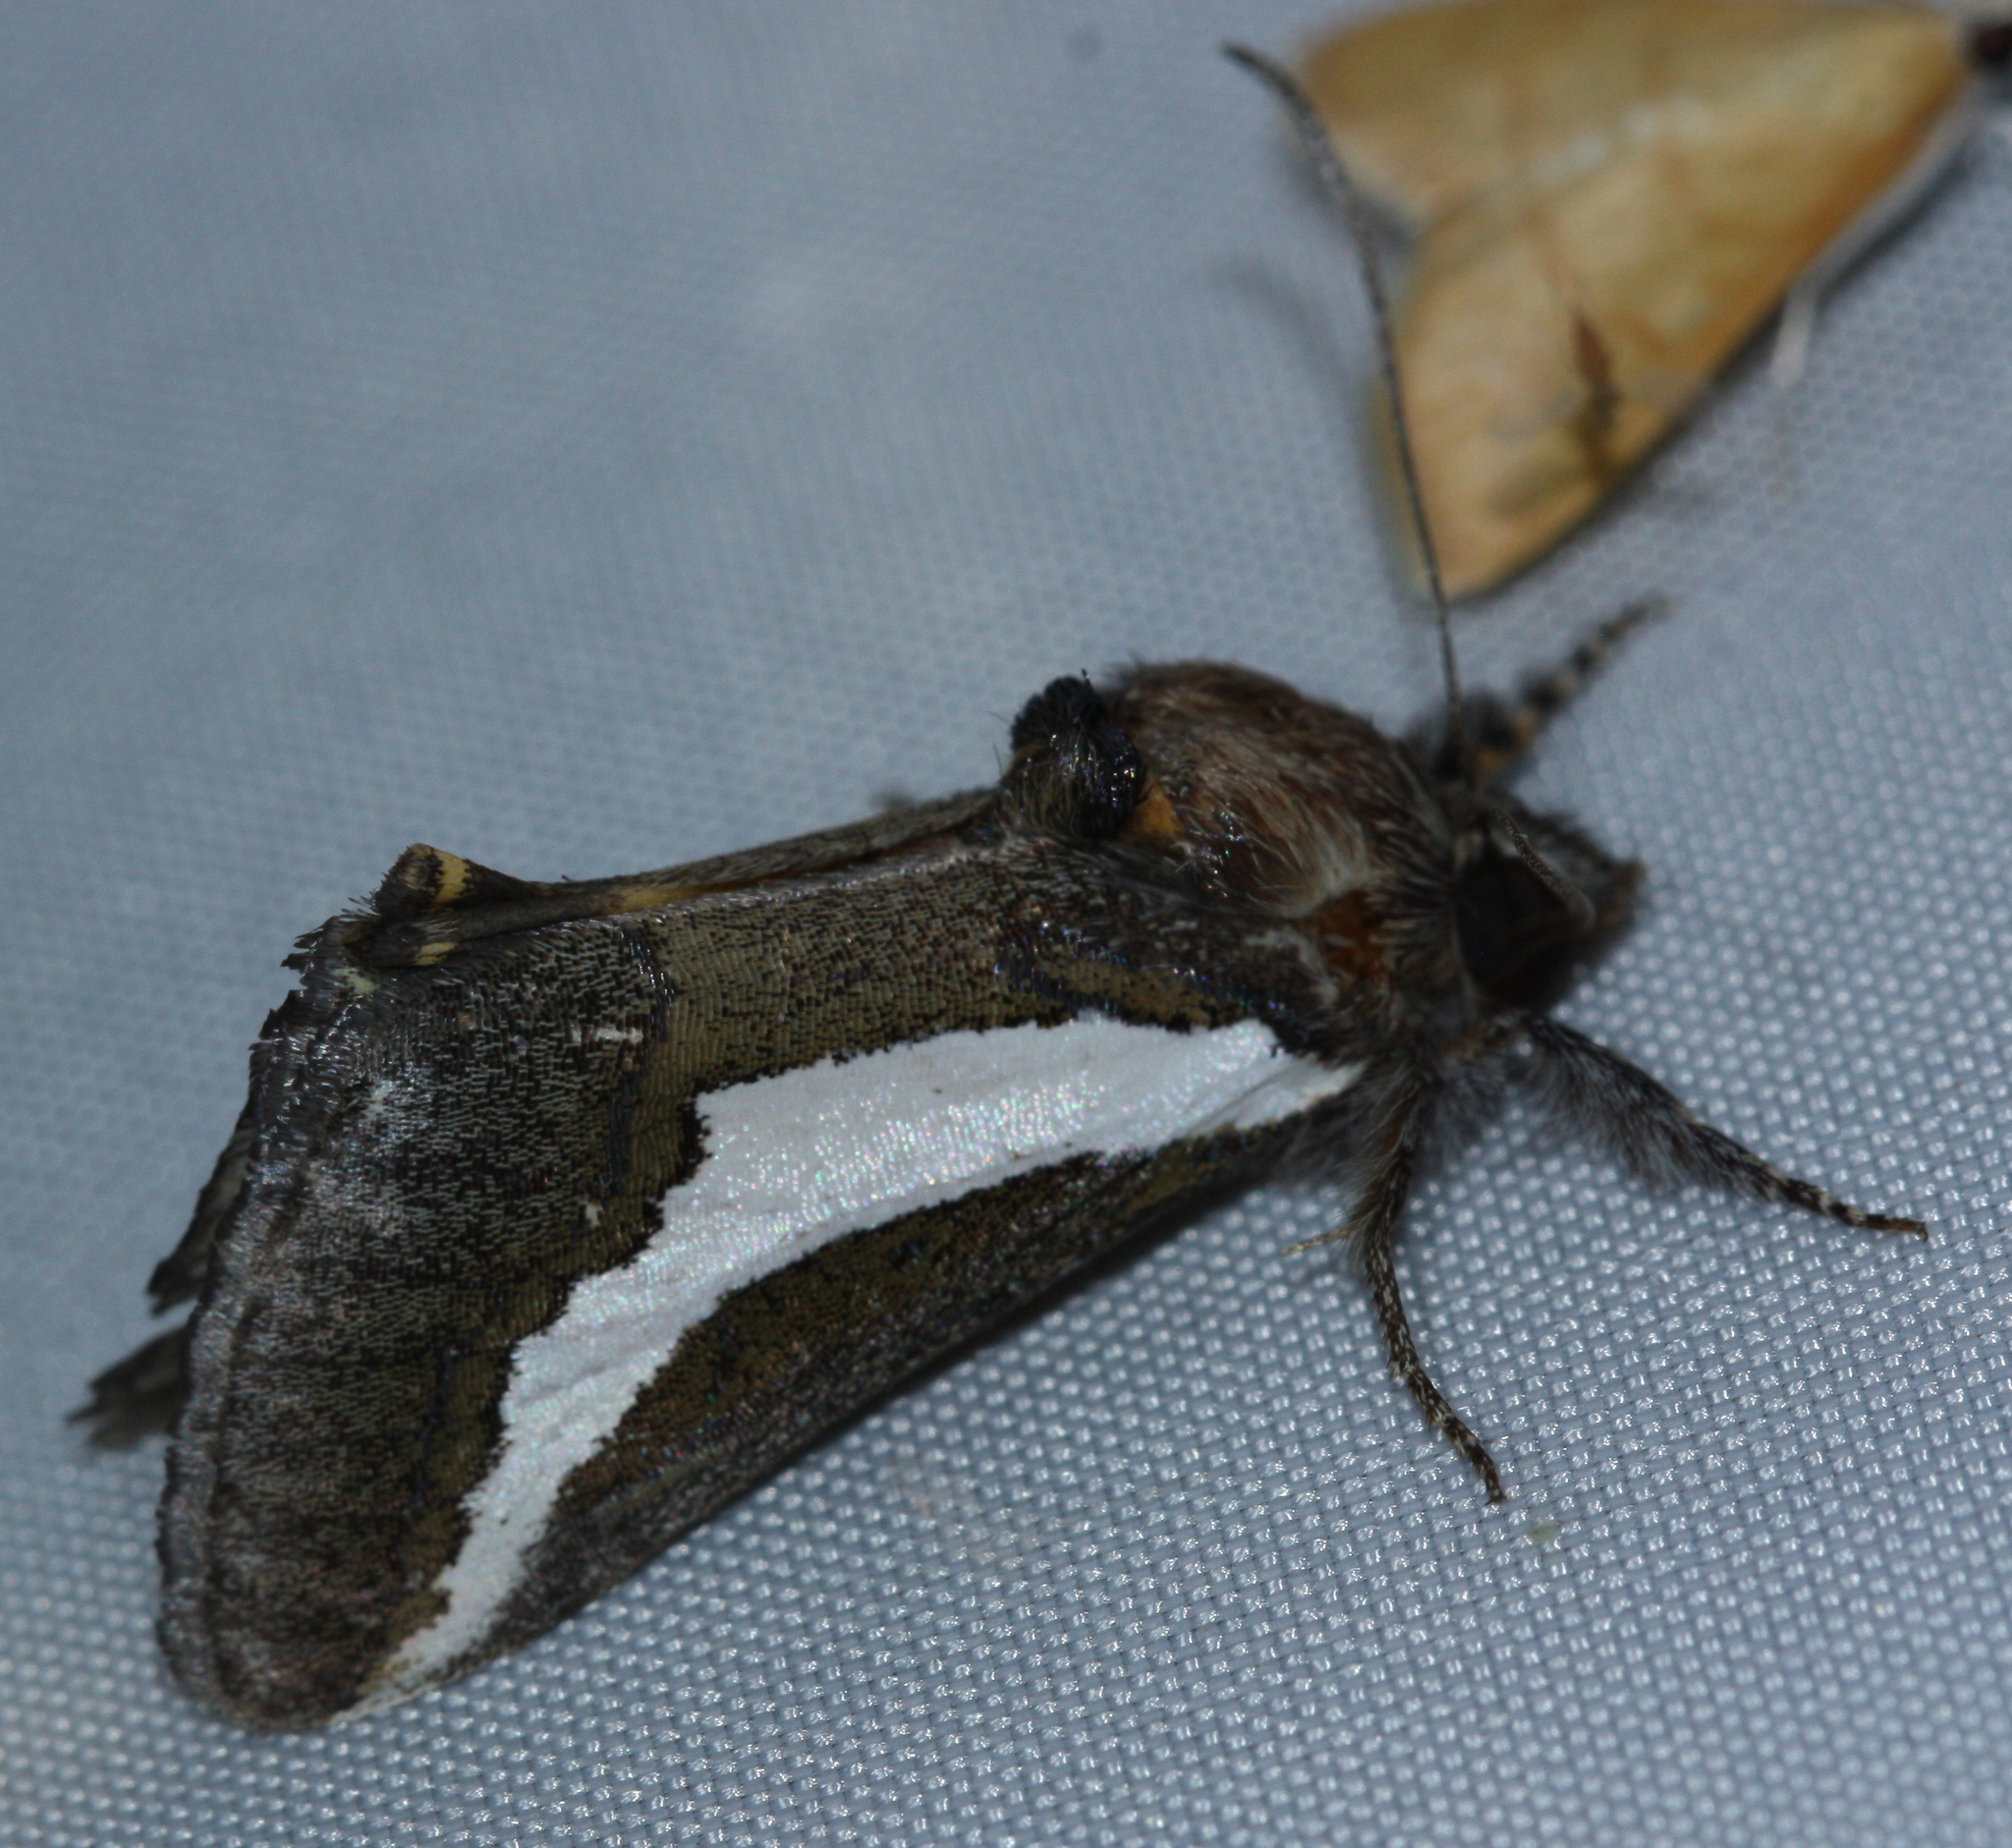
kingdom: Animalia
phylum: Arthropoda
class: Insecta
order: Lepidoptera
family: Noctuidae
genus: Euscirrhopterus
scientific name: Euscirrhopterus cosyra
